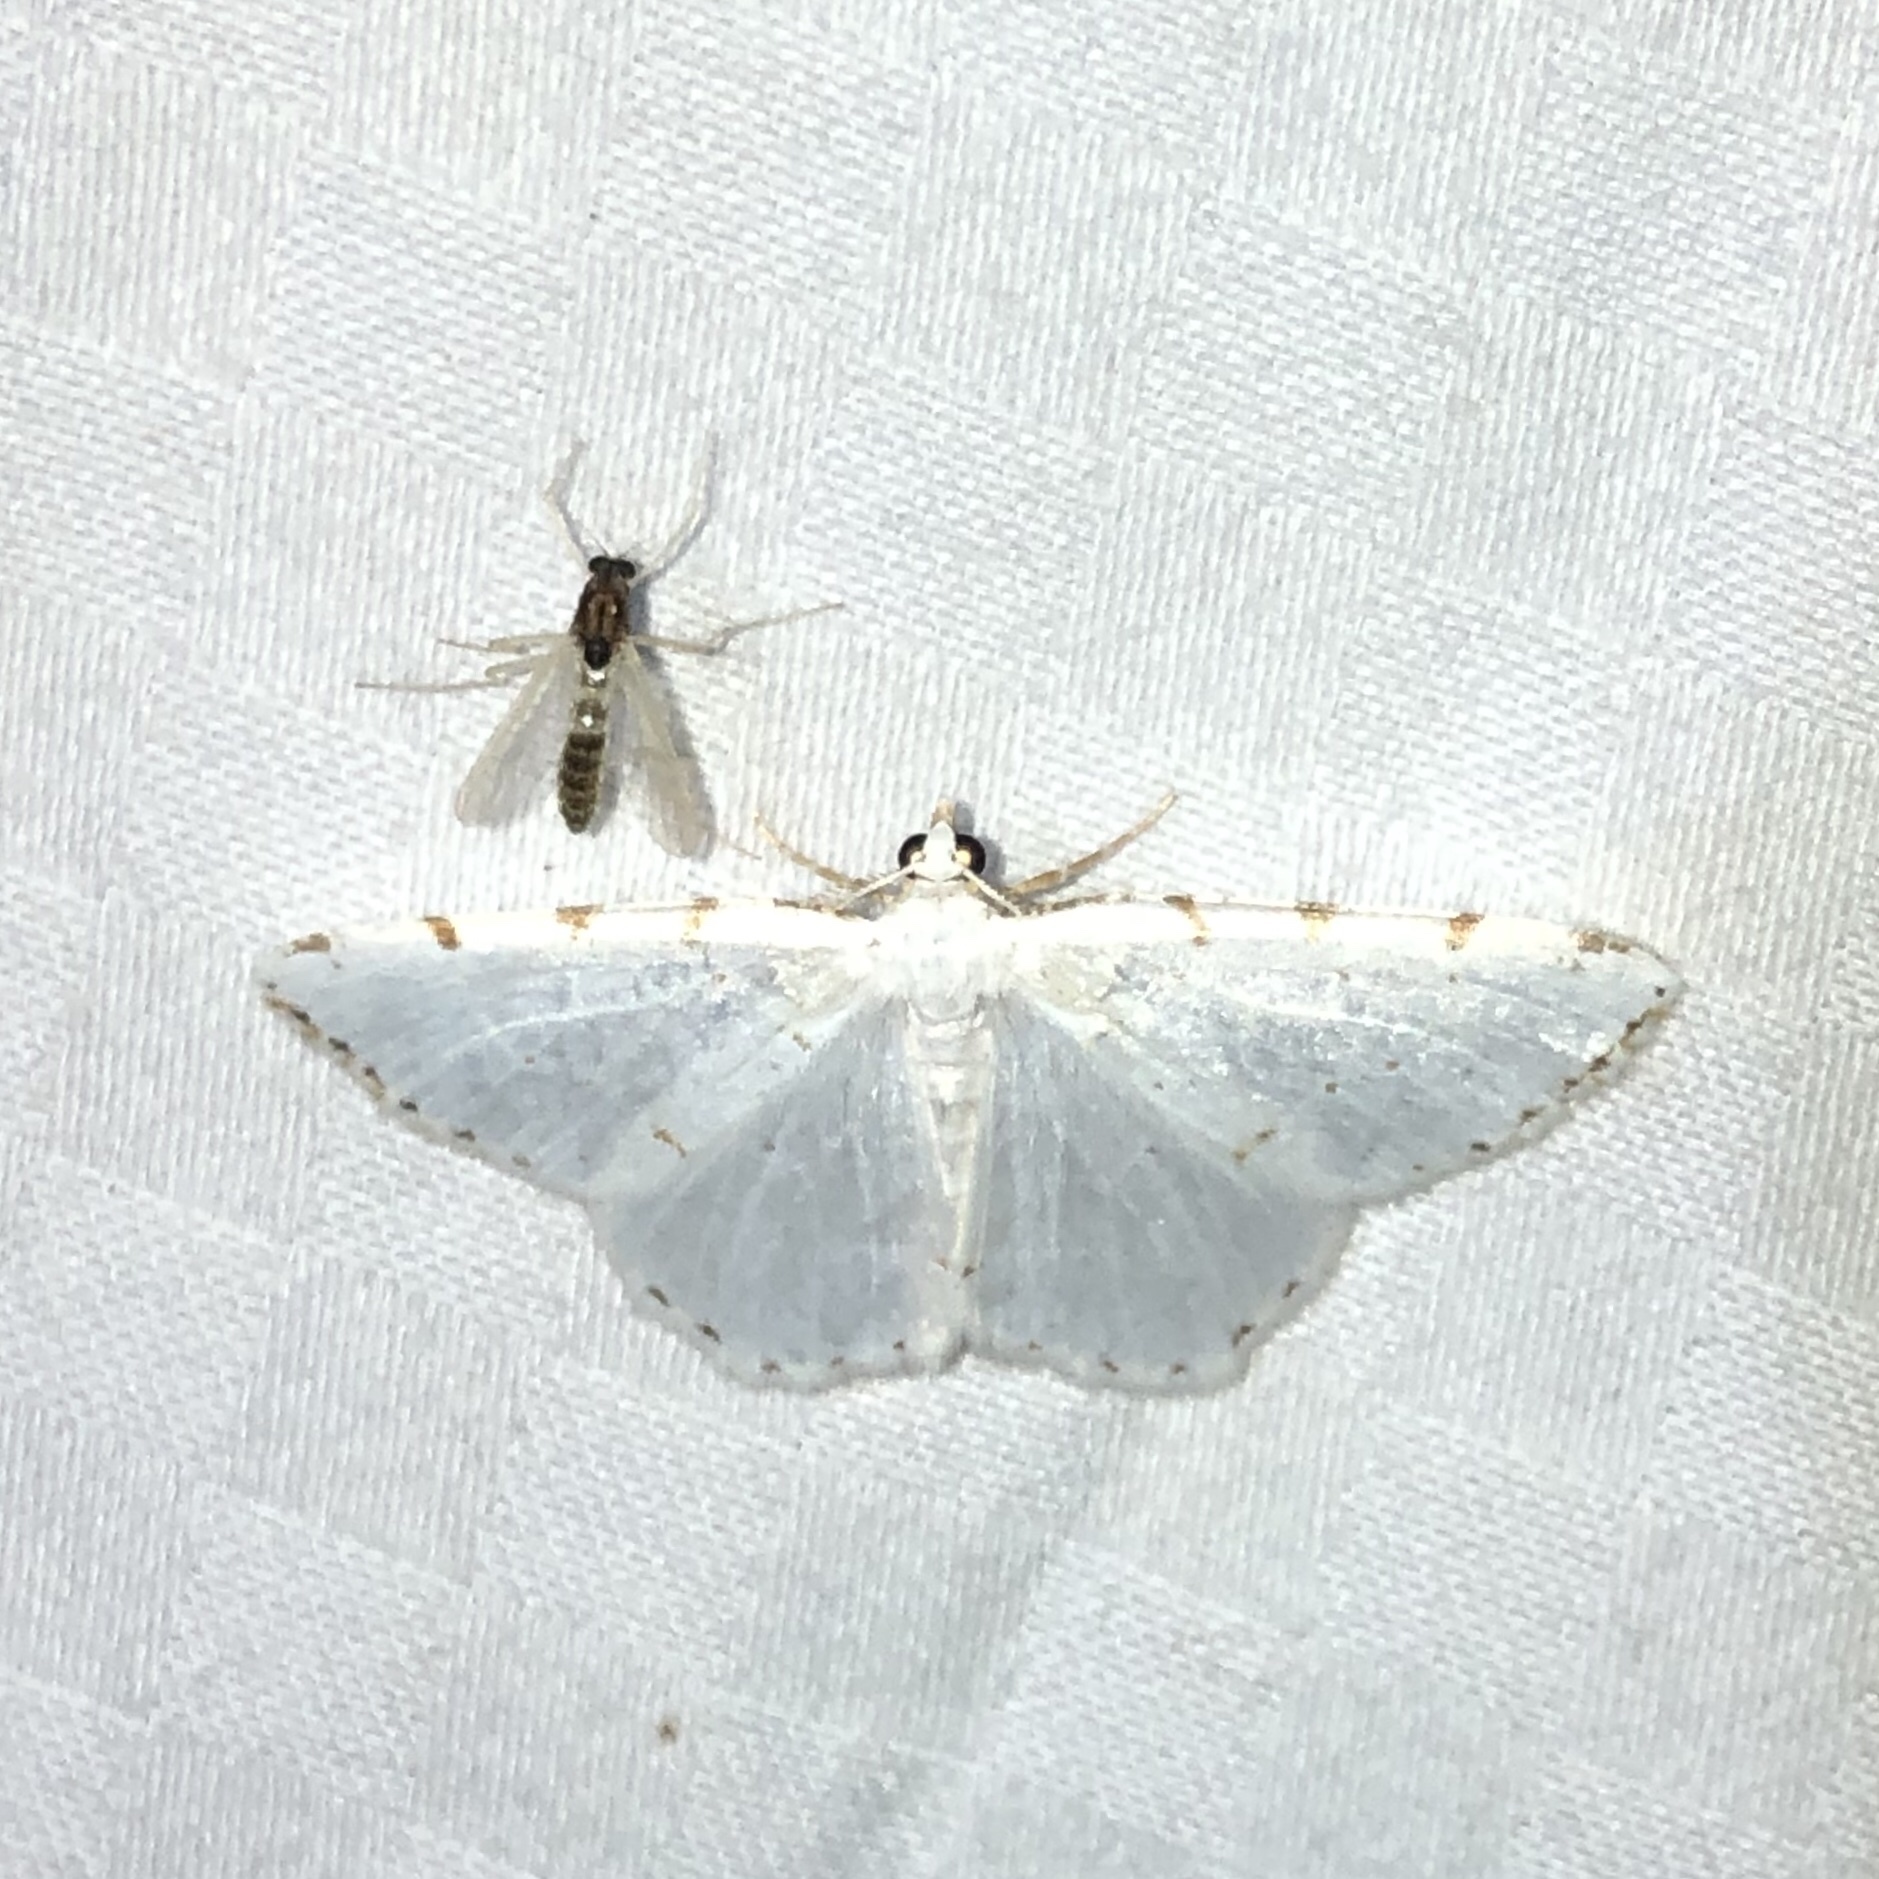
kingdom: Animalia
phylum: Arthropoda
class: Insecta
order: Lepidoptera
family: Geometridae
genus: Macaria
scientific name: Macaria pustularia
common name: Lesser maple spanworm moth
